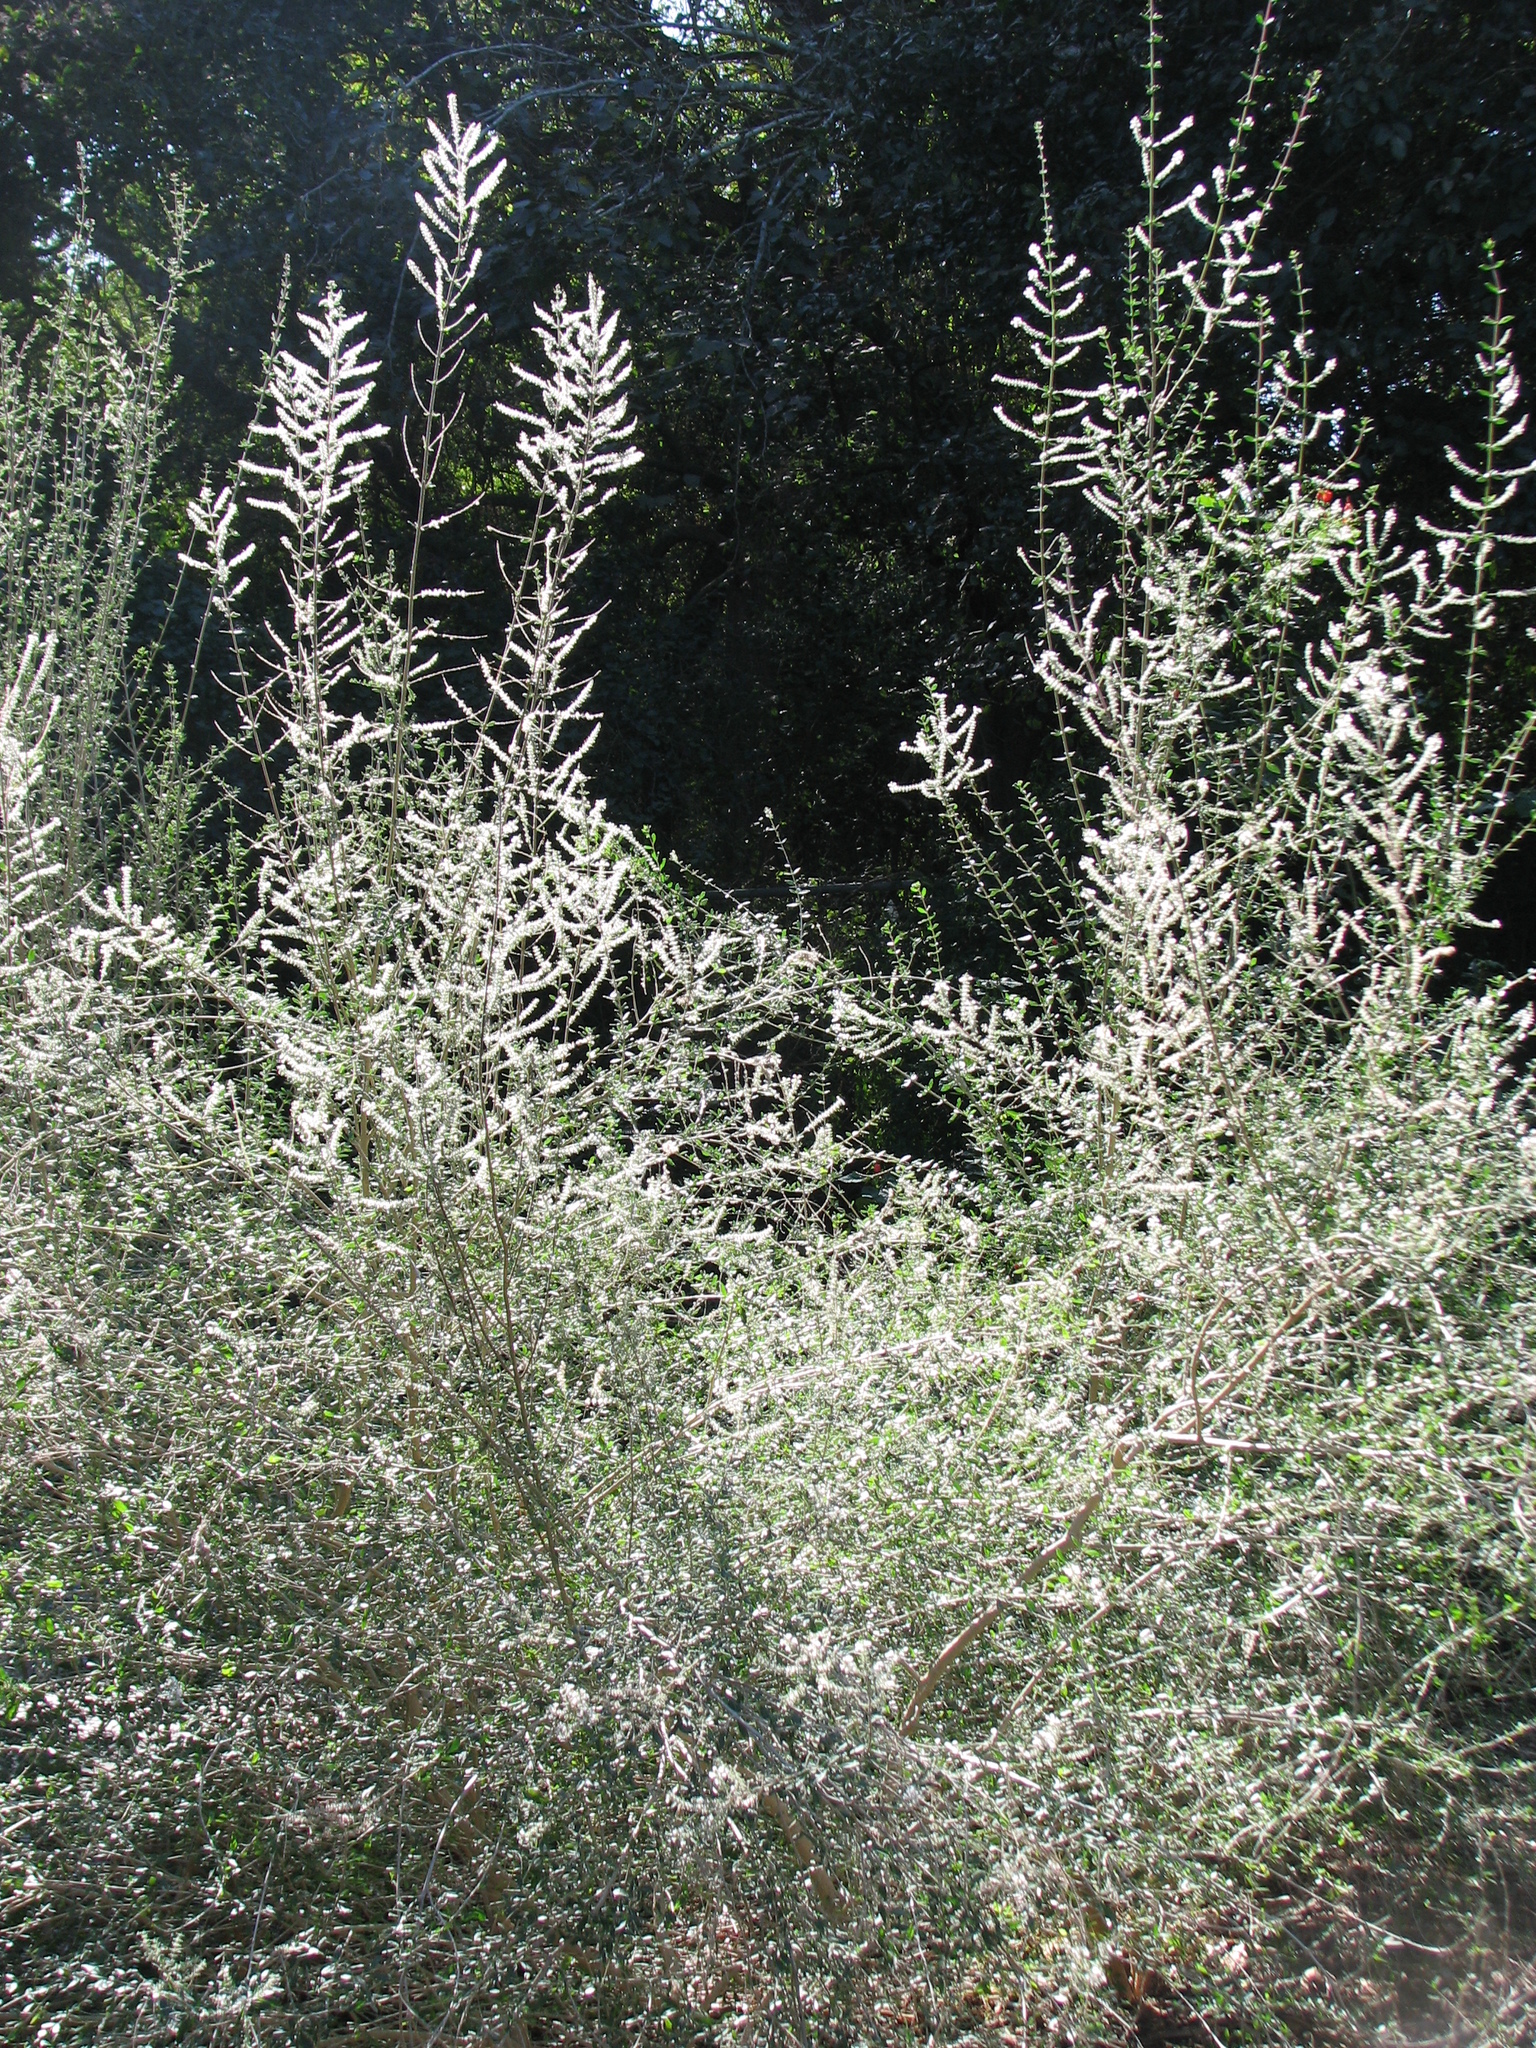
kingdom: Plantae
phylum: Tracheophyta
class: Magnoliopsida
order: Lamiales
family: Verbenaceae
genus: Aloysia
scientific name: Aloysia gratissima
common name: Common bee-brush
